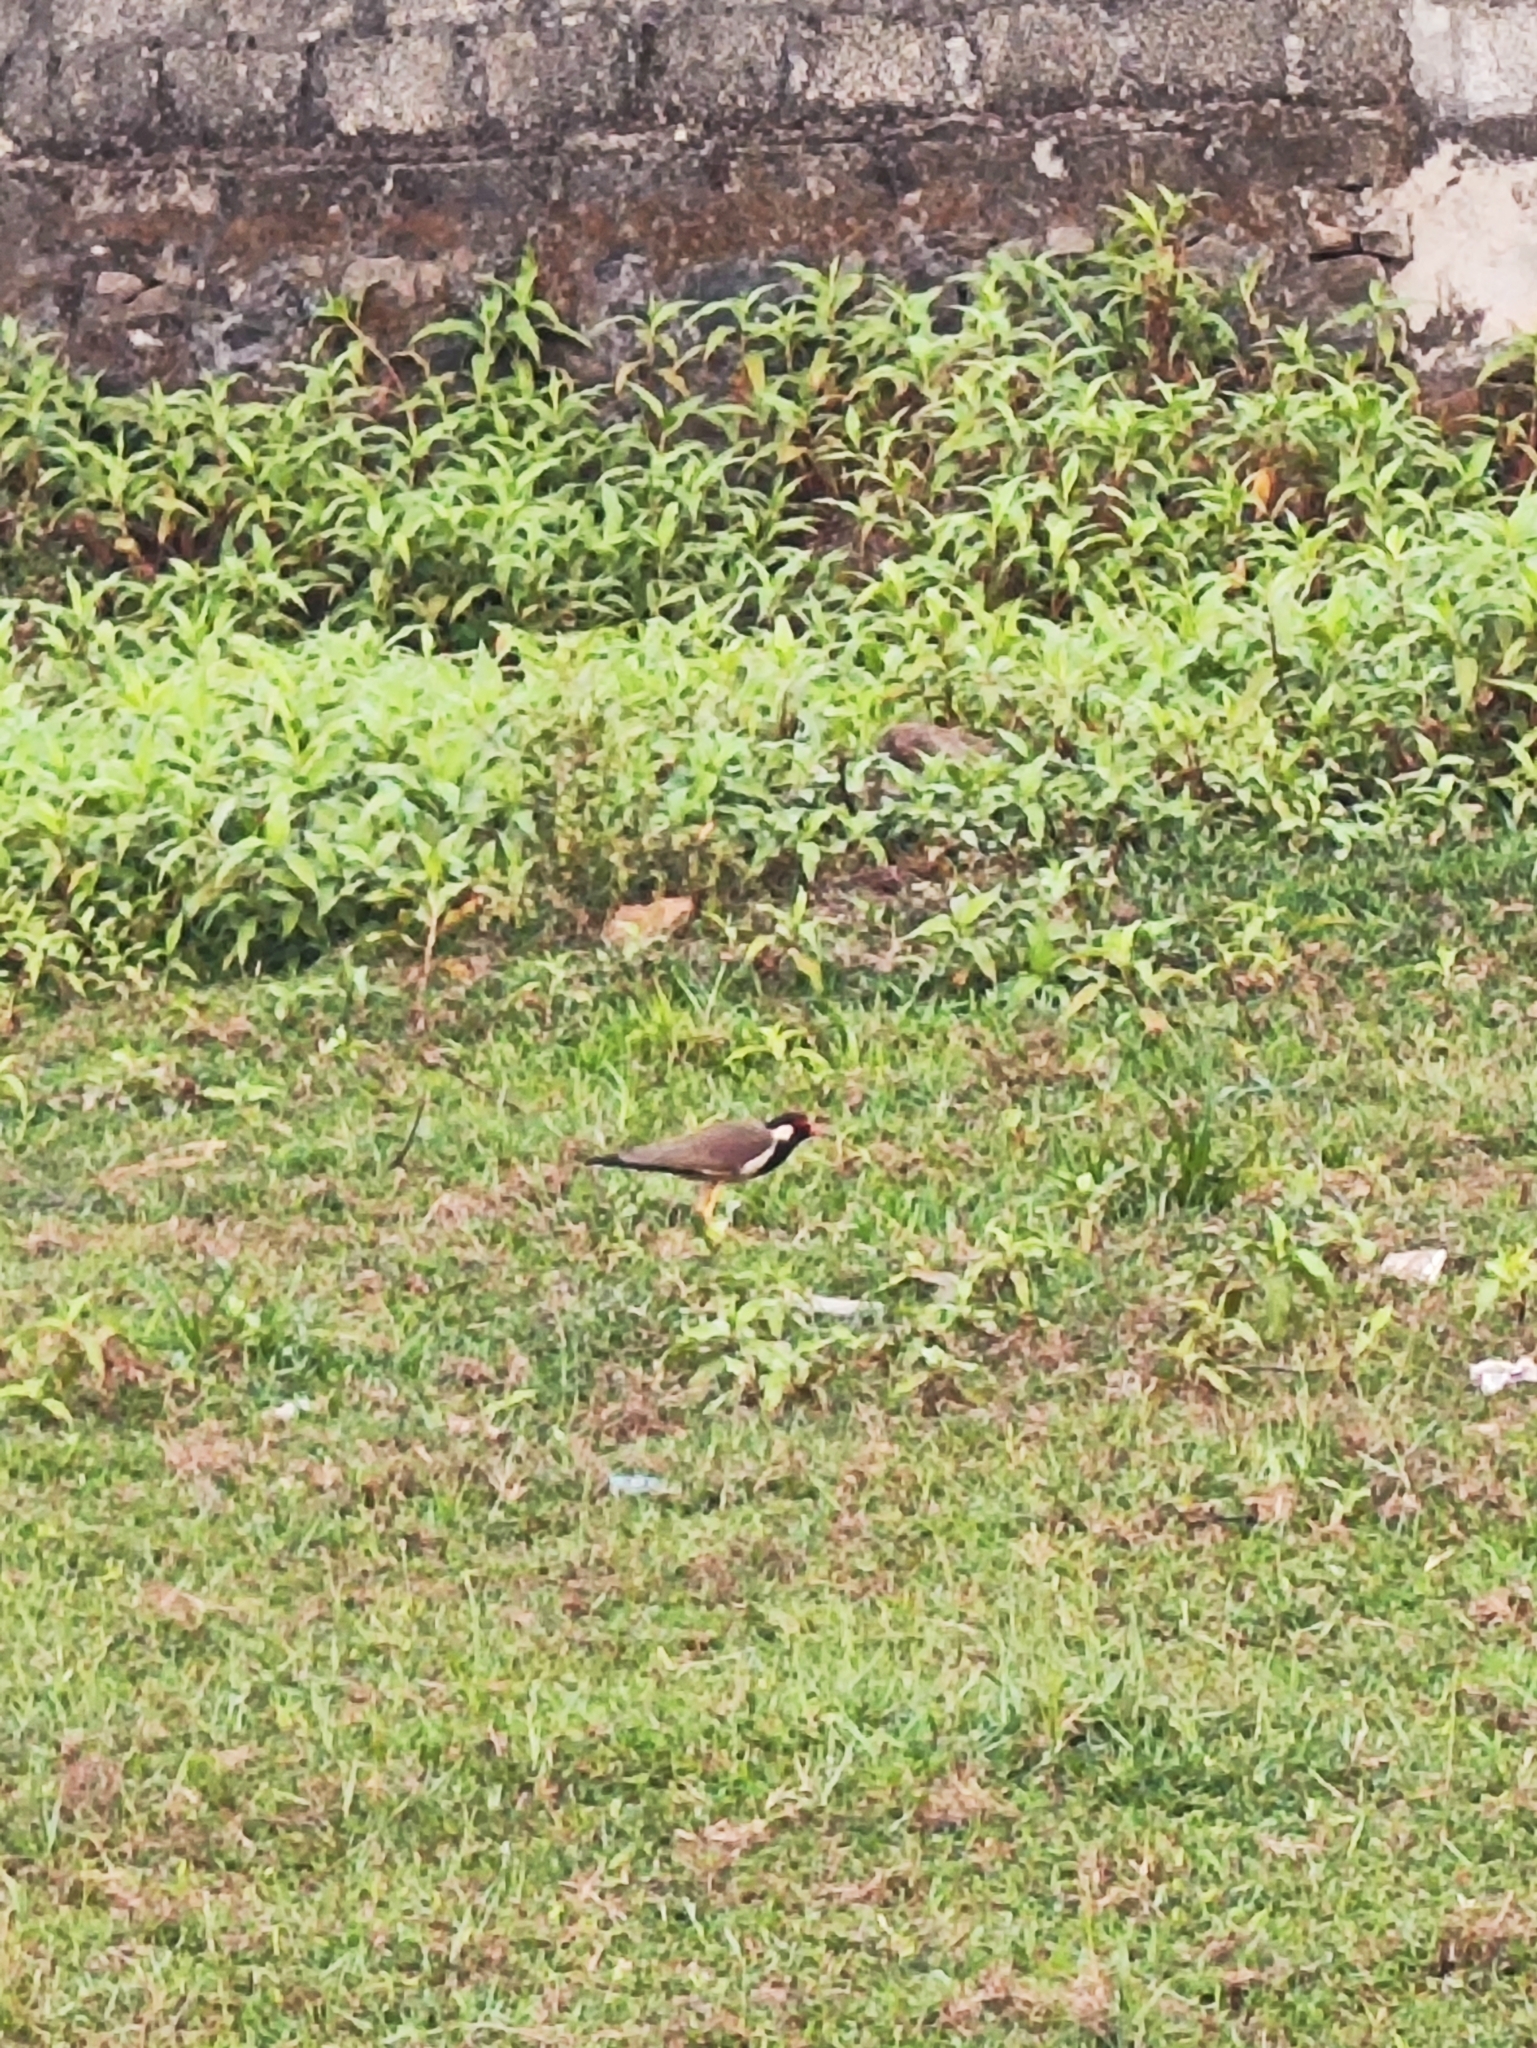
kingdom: Animalia
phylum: Chordata
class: Aves
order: Charadriiformes
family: Charadriidae
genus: Vanellus
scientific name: Vanellus indicus
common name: Red-wattled lapwing
